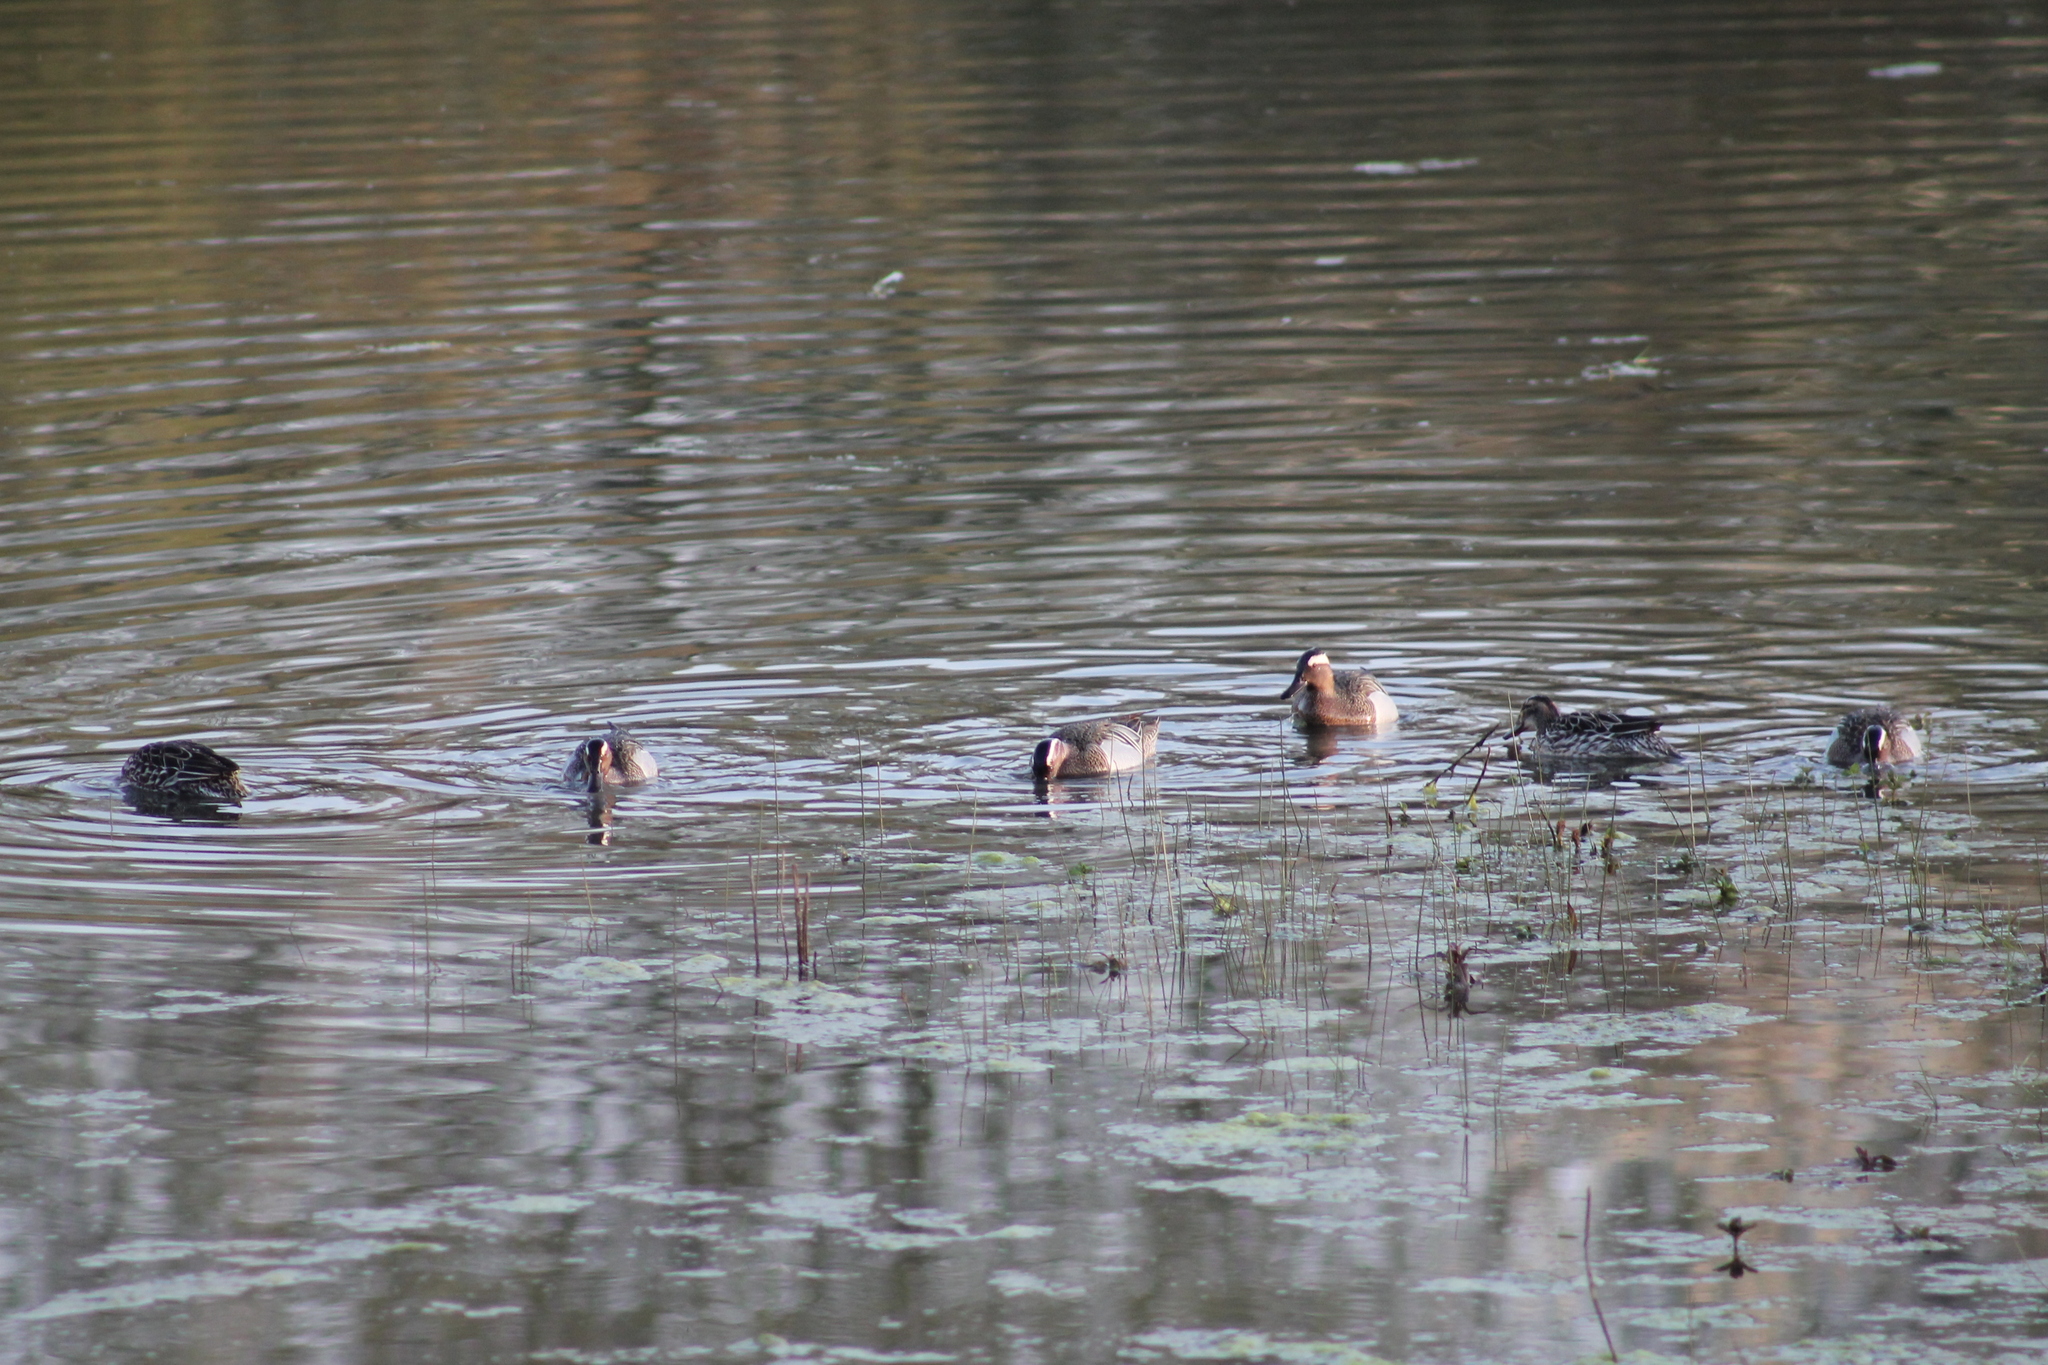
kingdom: Animalia
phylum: Chordata
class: Aves
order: Anseriformes
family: Anatidae
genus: Spatula
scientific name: Spatula querquedula
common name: Garganey
